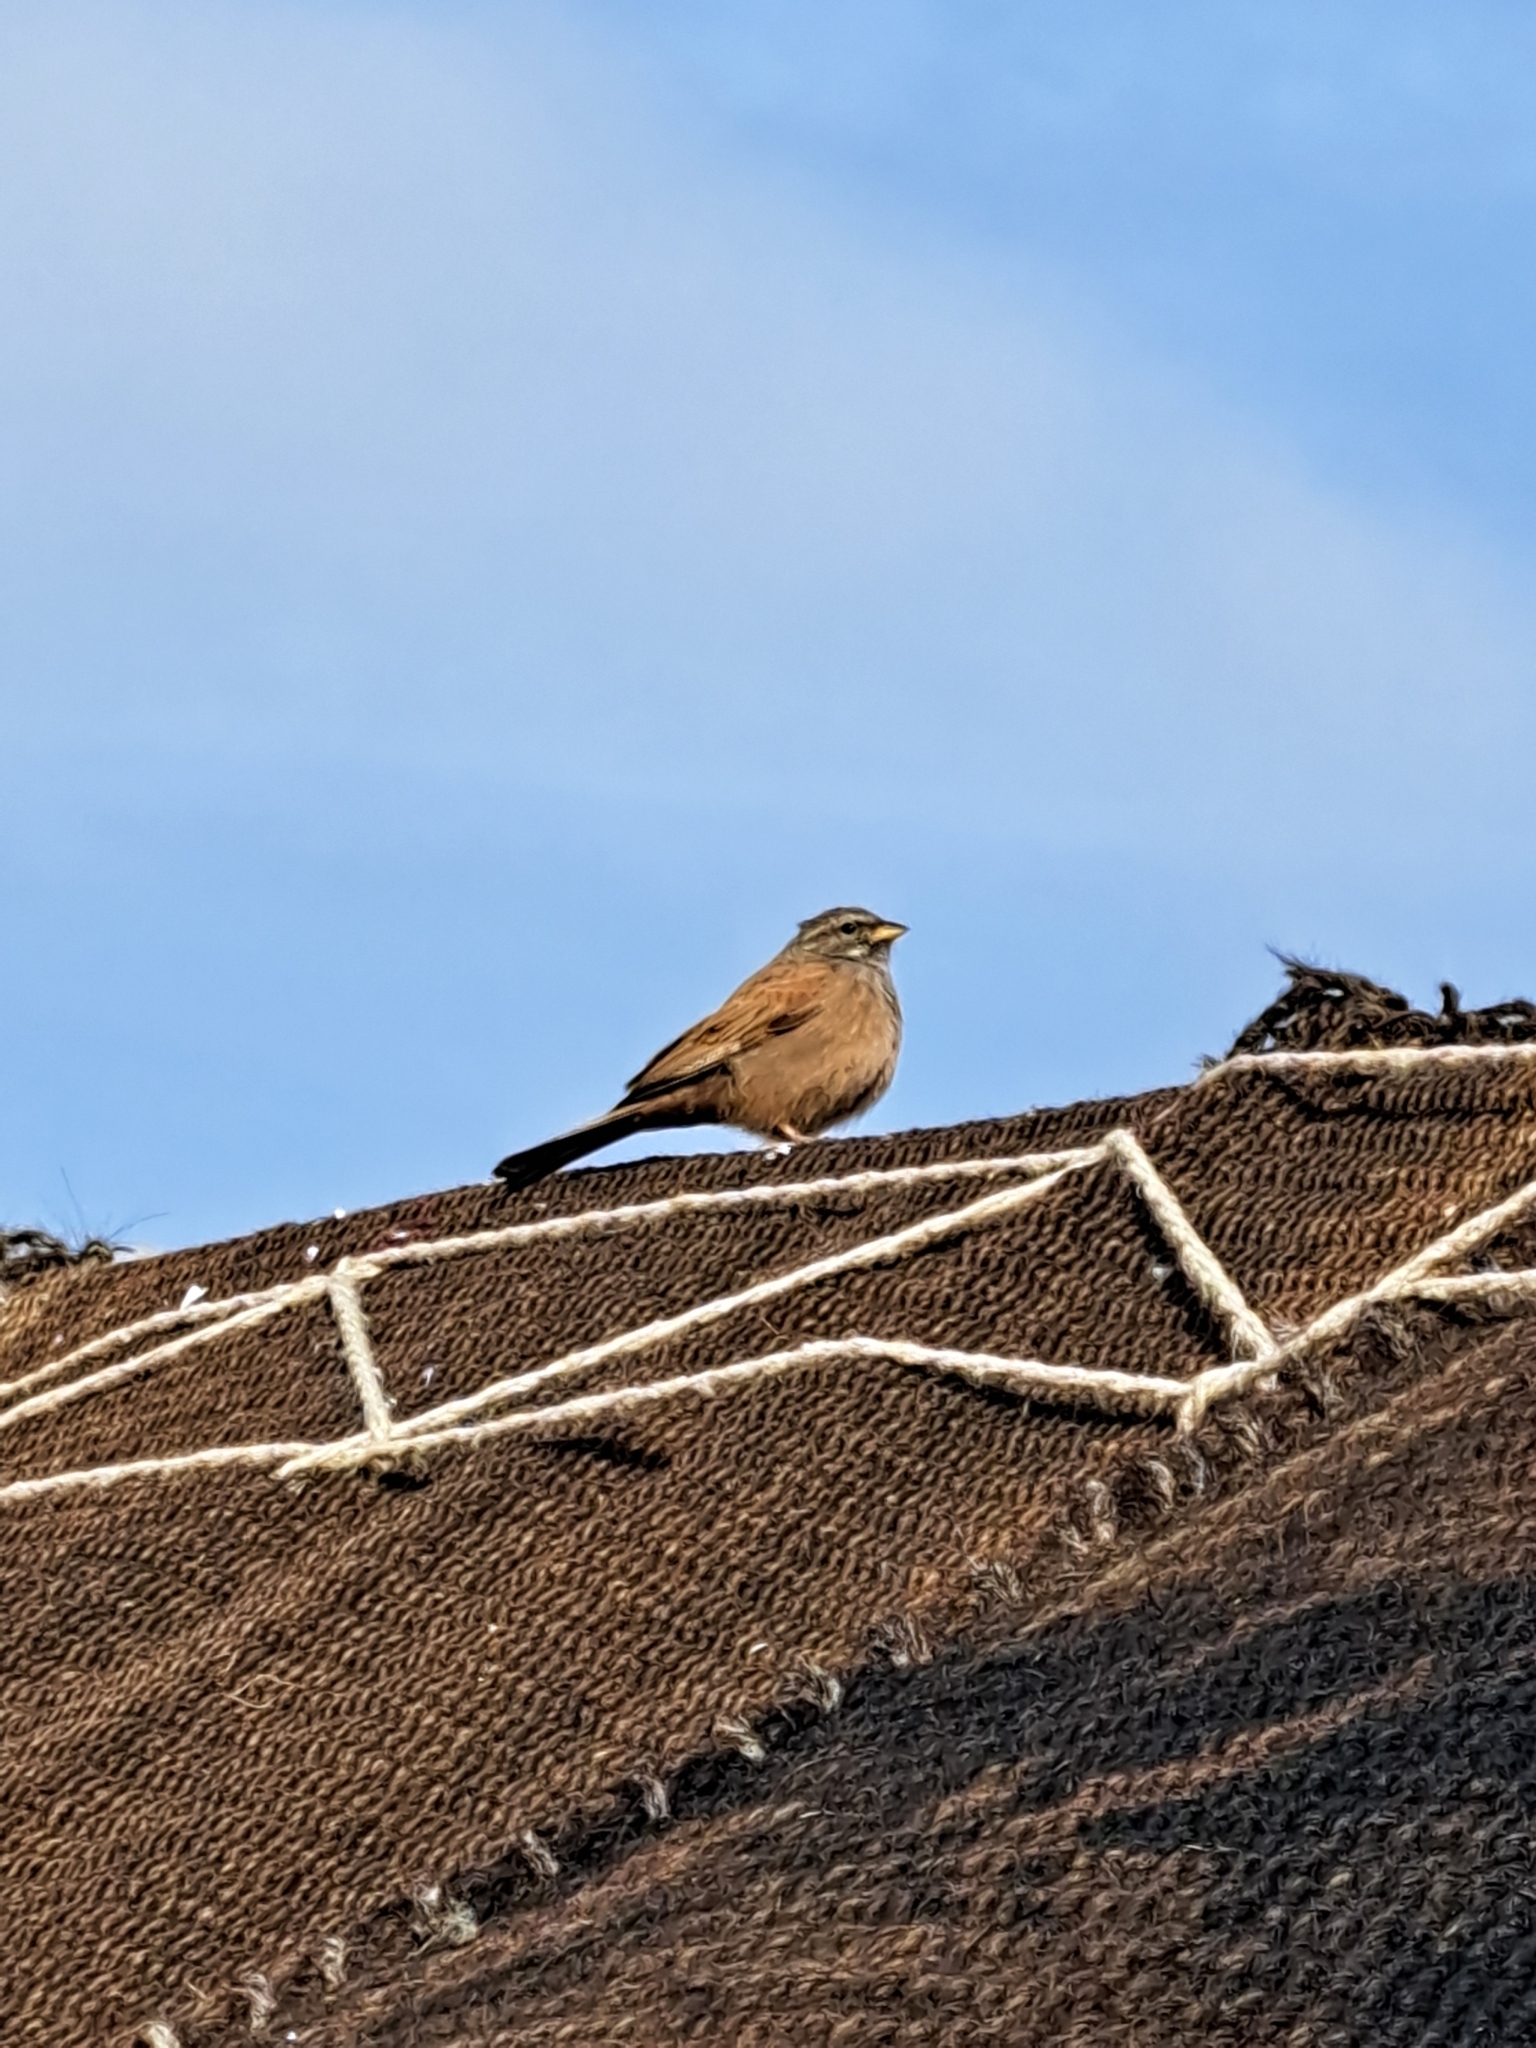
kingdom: Animalia
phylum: Chordata
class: Aves
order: Passeriformes
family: Emberizidae
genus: Emberiza
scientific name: Emberiza sahari
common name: House bunting
